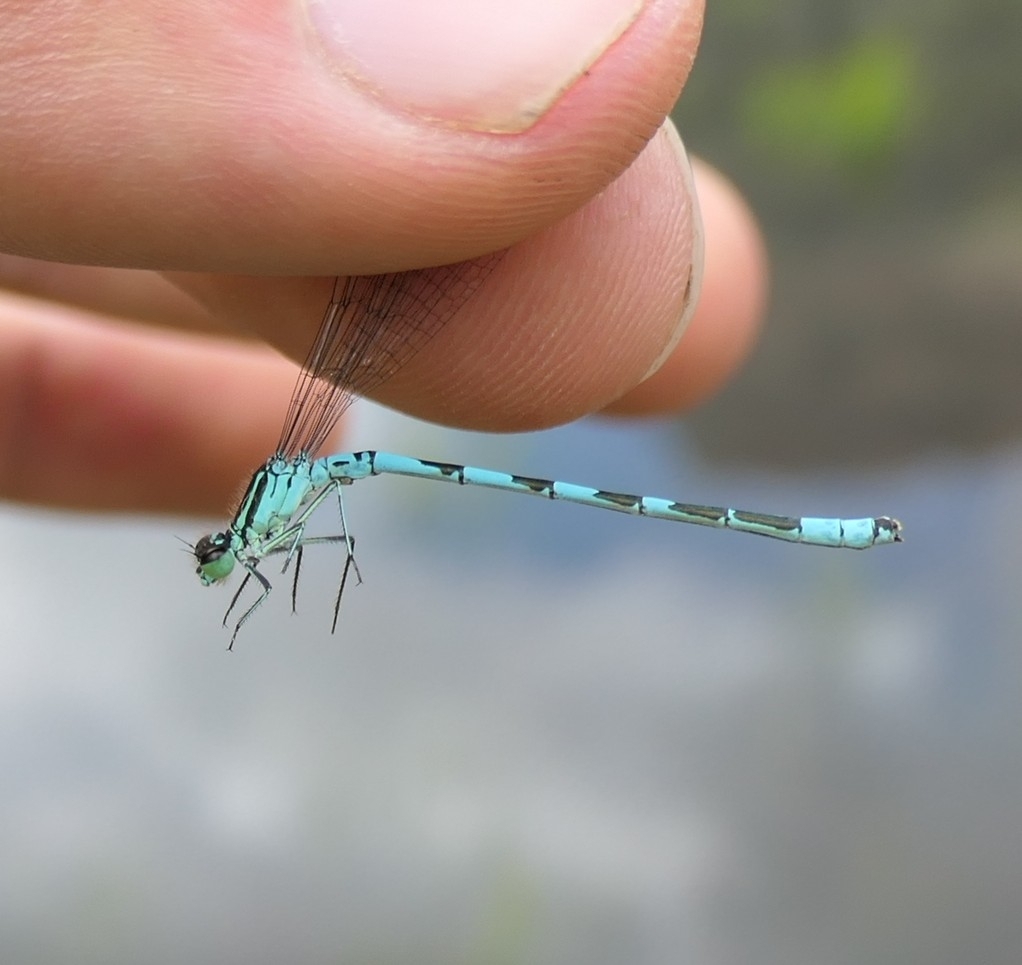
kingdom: Animalia
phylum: Arthropoda
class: Insecta
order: Odonata
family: Coenagrionidae
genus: Coenagrion
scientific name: Coenagrion hastulatum
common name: Spearhead bluet
